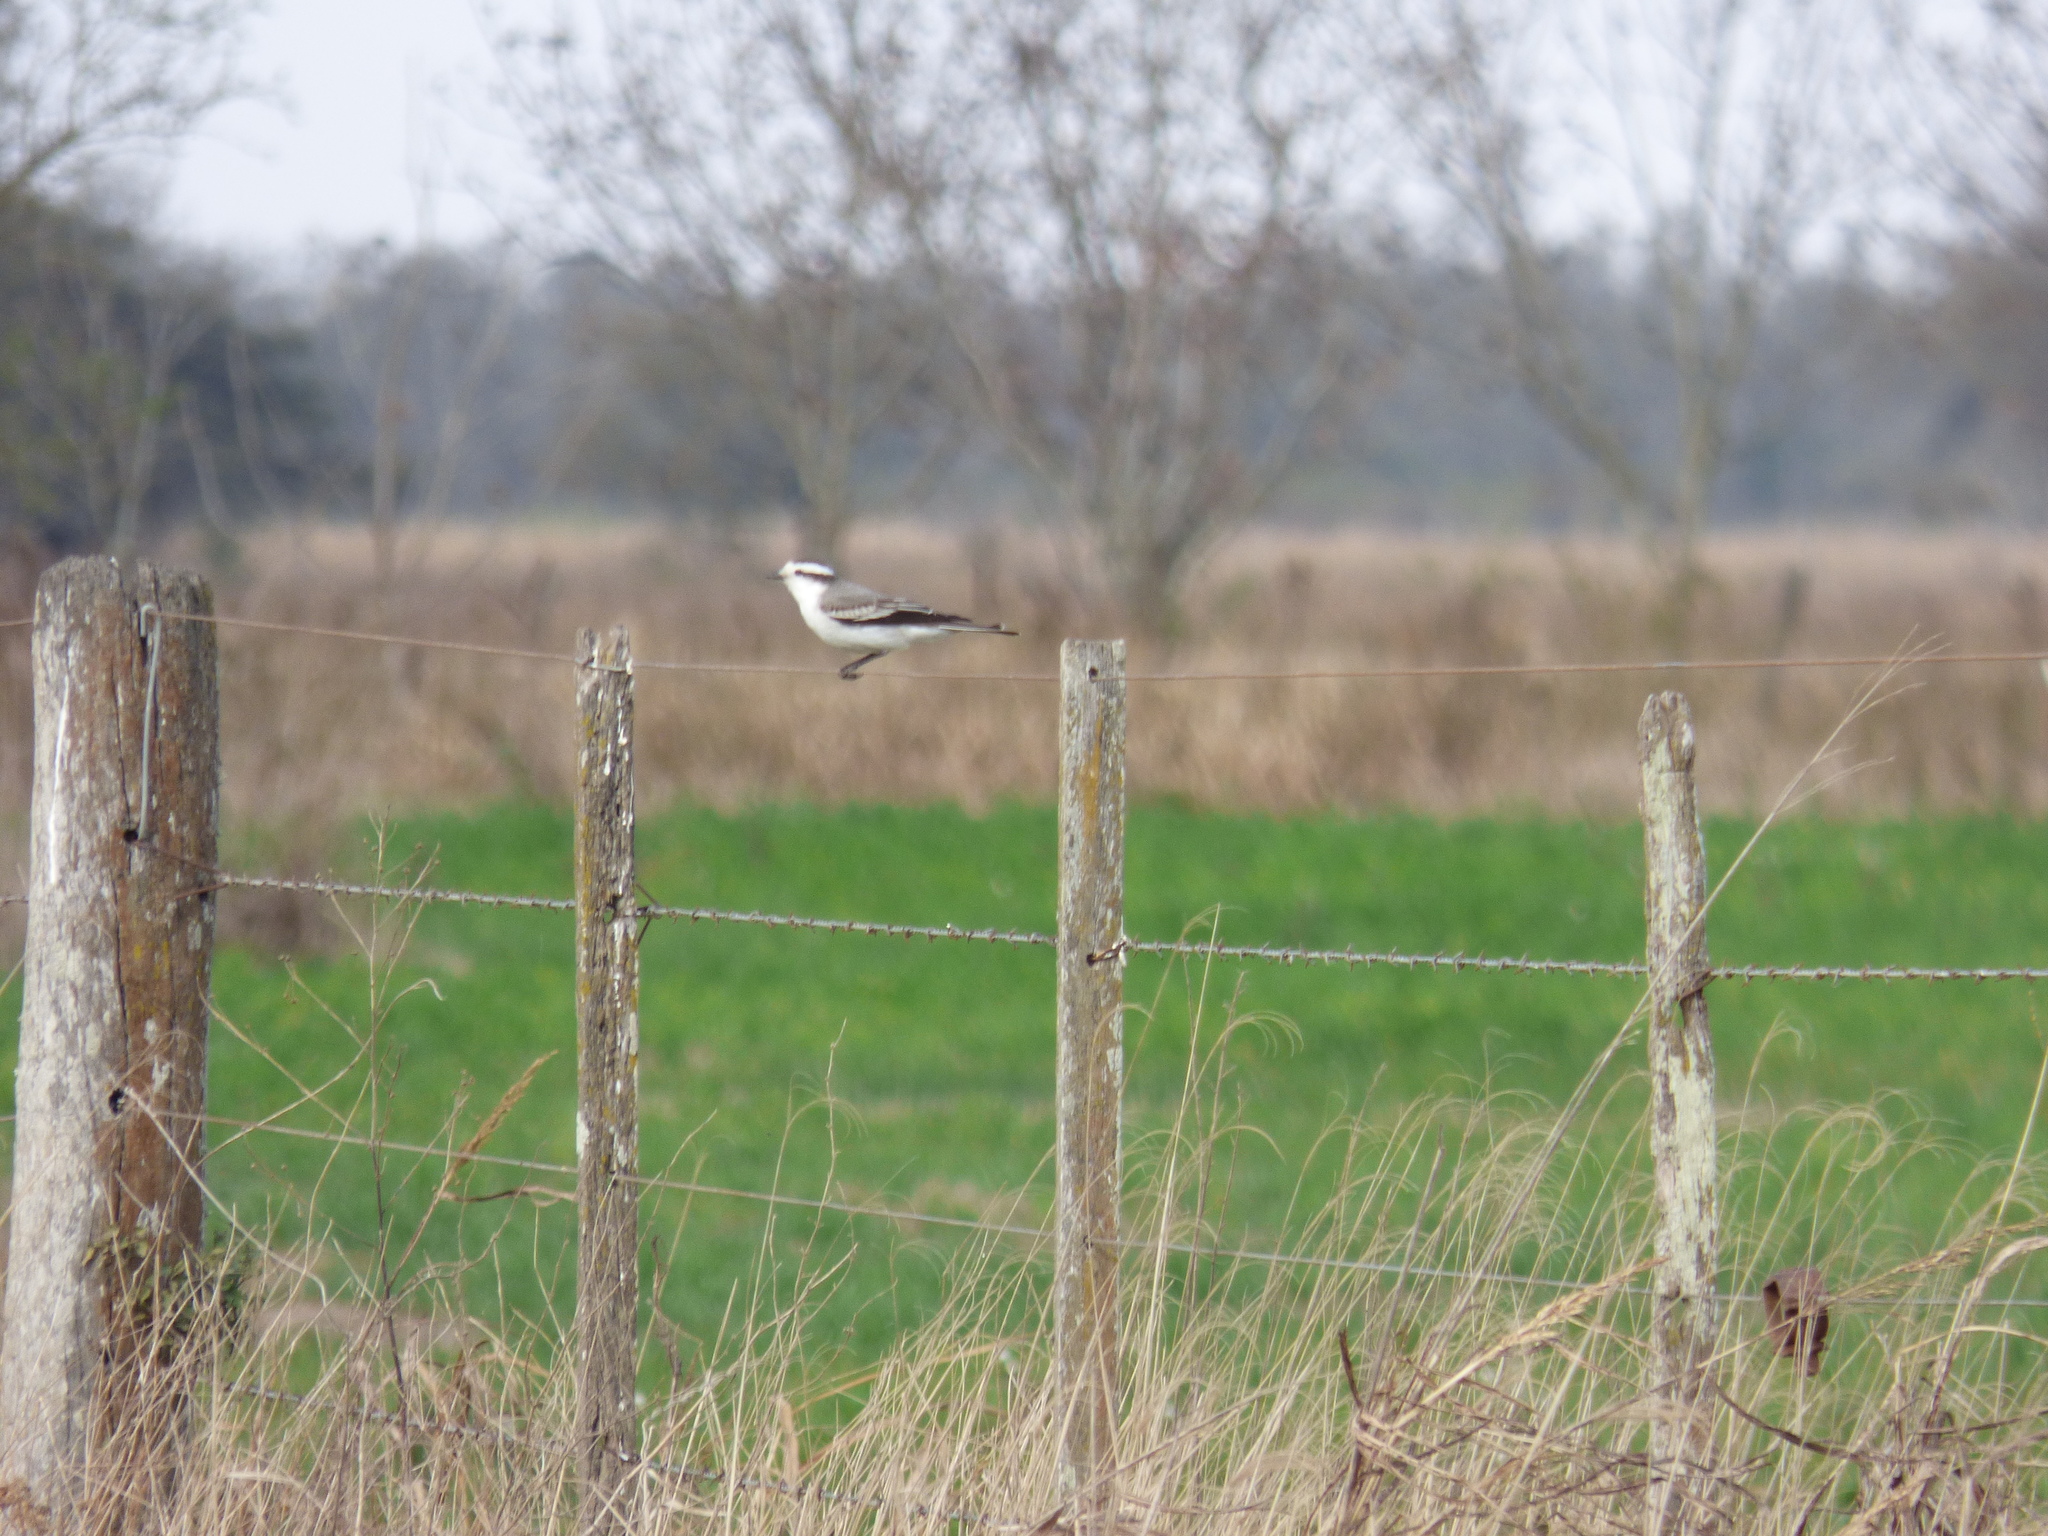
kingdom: Animalia
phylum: Chordata
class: Aves
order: Passeriformes
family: Tyrannidae
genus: Xolmis
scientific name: Xolmis coronatus
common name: Black-crowned monjita
